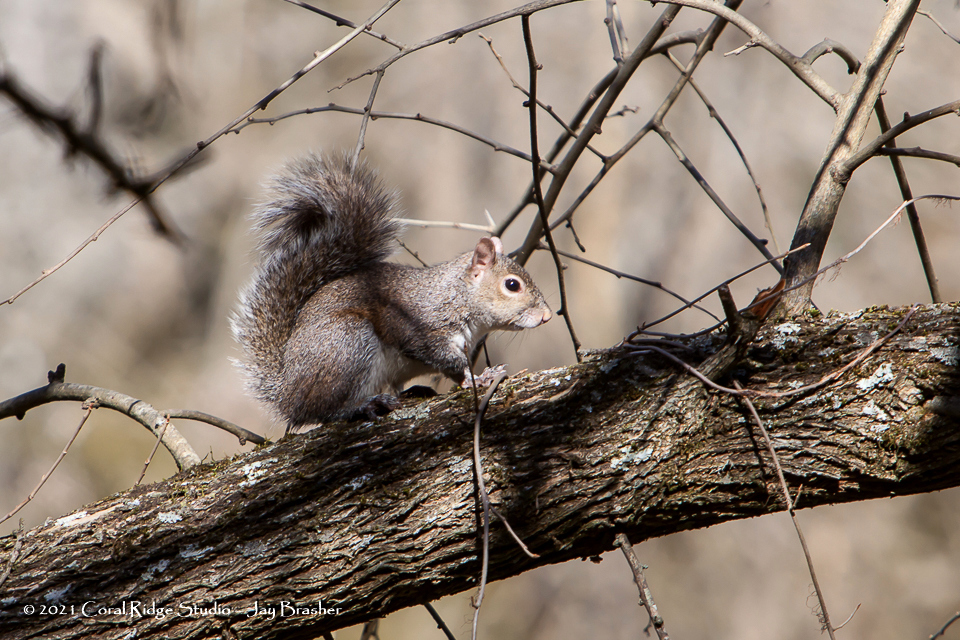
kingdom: Animalia
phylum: Chordata
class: Mammalia
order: Rodentia
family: Sciuridae
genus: Sciurus
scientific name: Sciurus carolinensis
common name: Eastern gray squirrel
